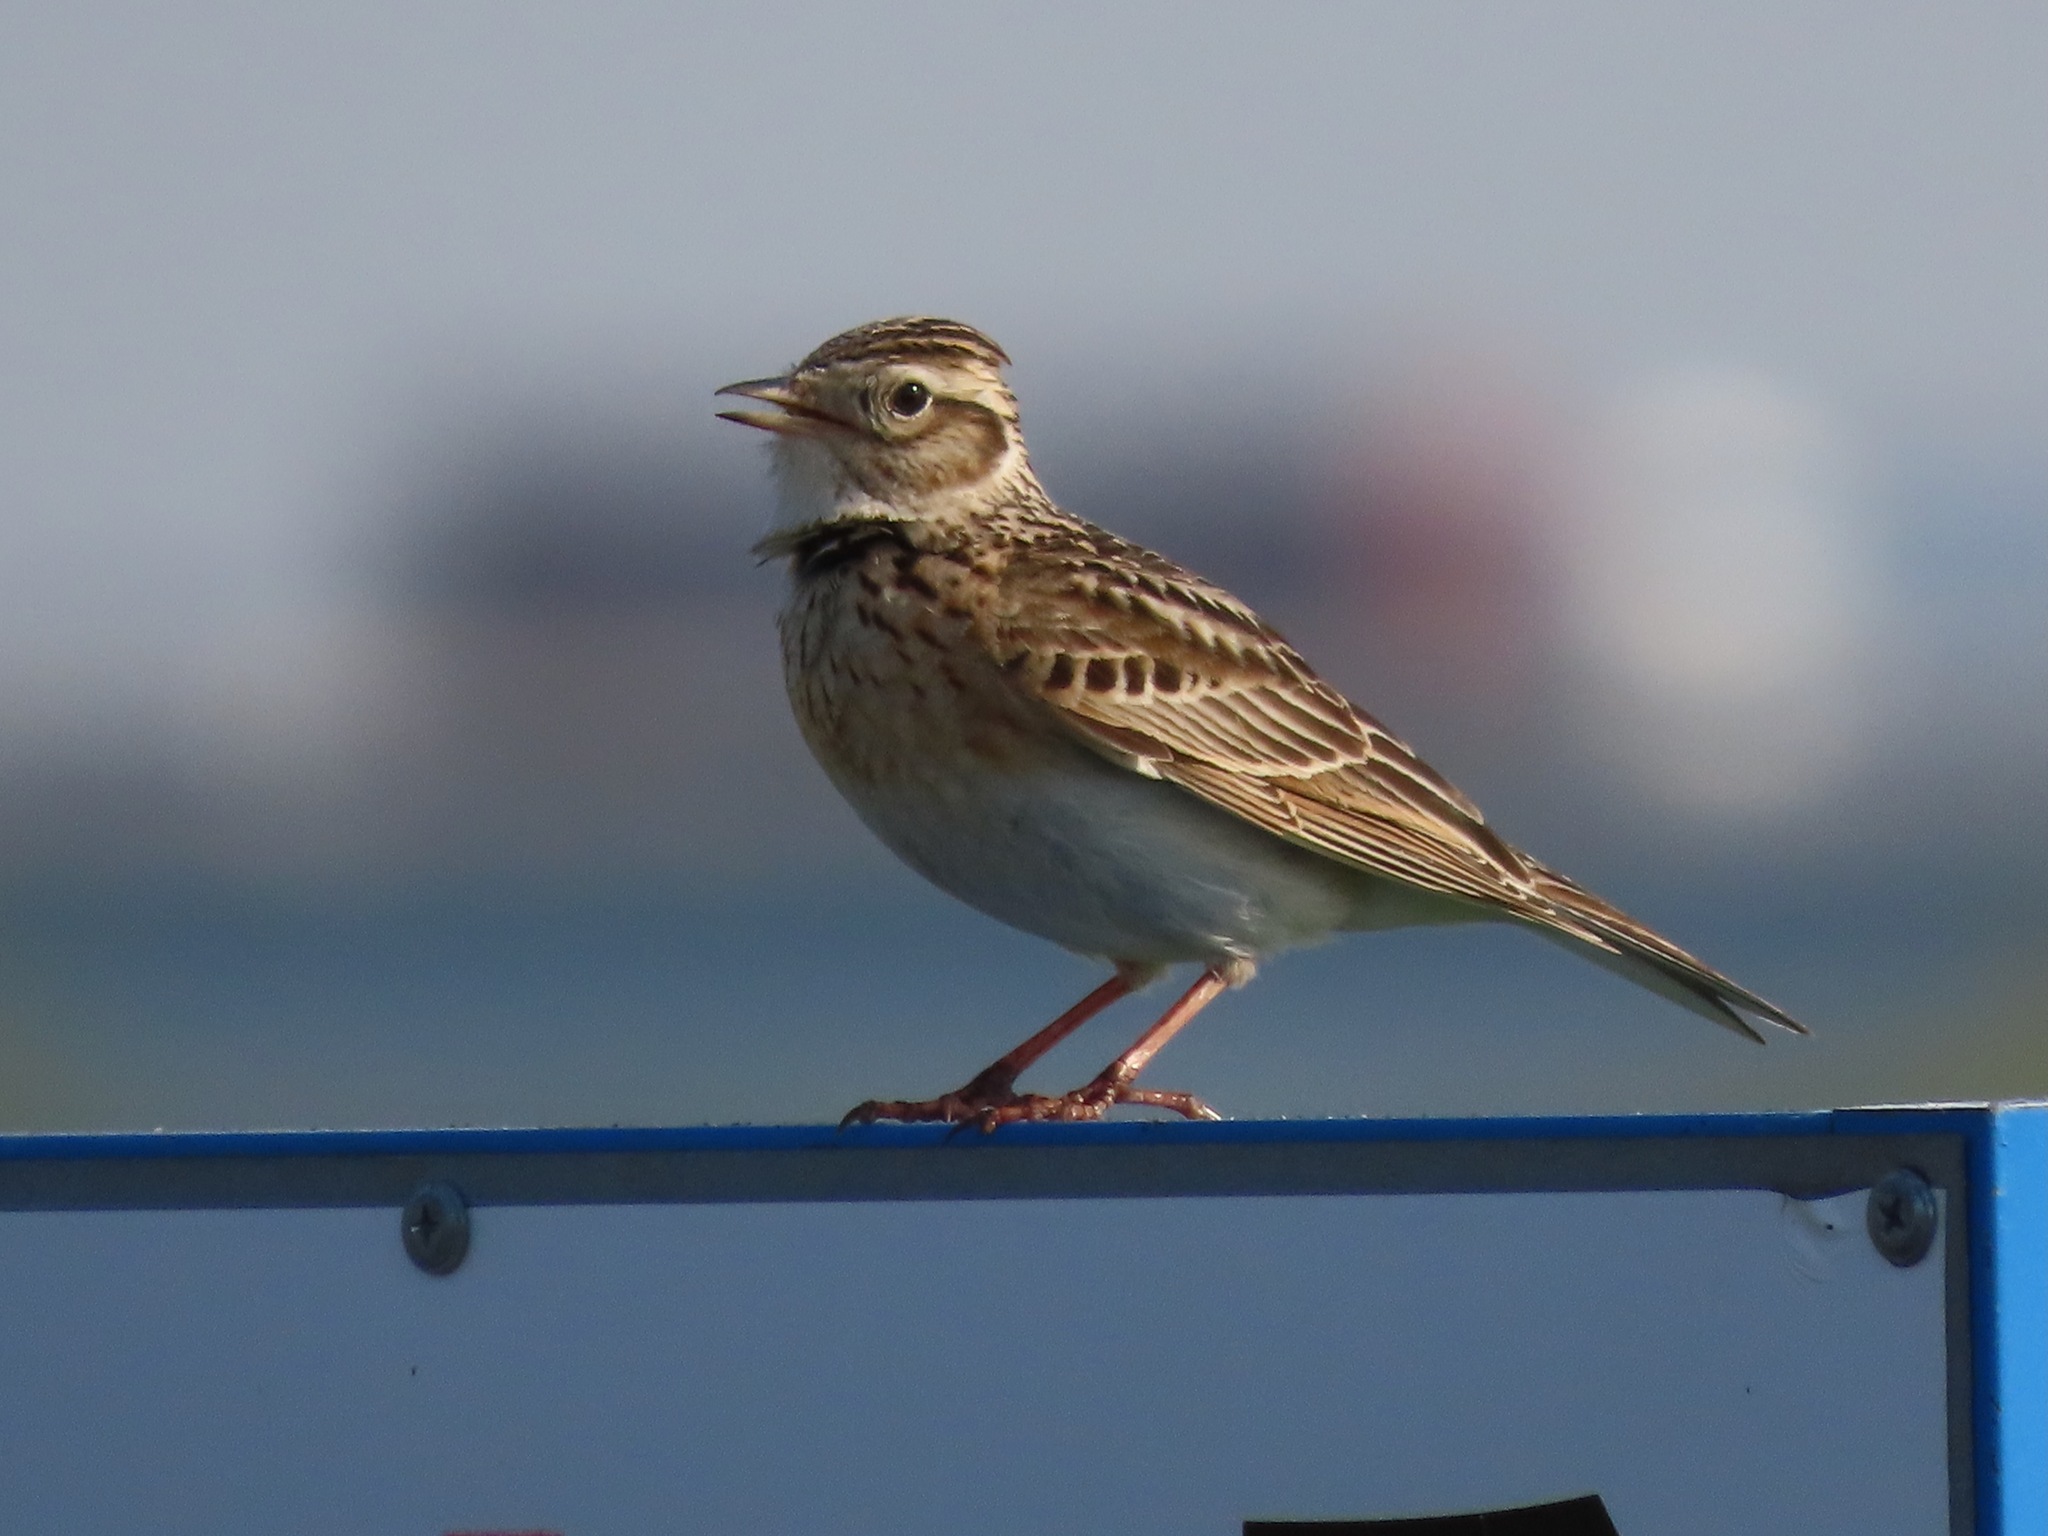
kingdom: Animalia
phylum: Chordata
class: Aves
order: Passeriformes
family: Alaudidae
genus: Alauda
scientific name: Alauda arvensis
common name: Eurasian skylark
